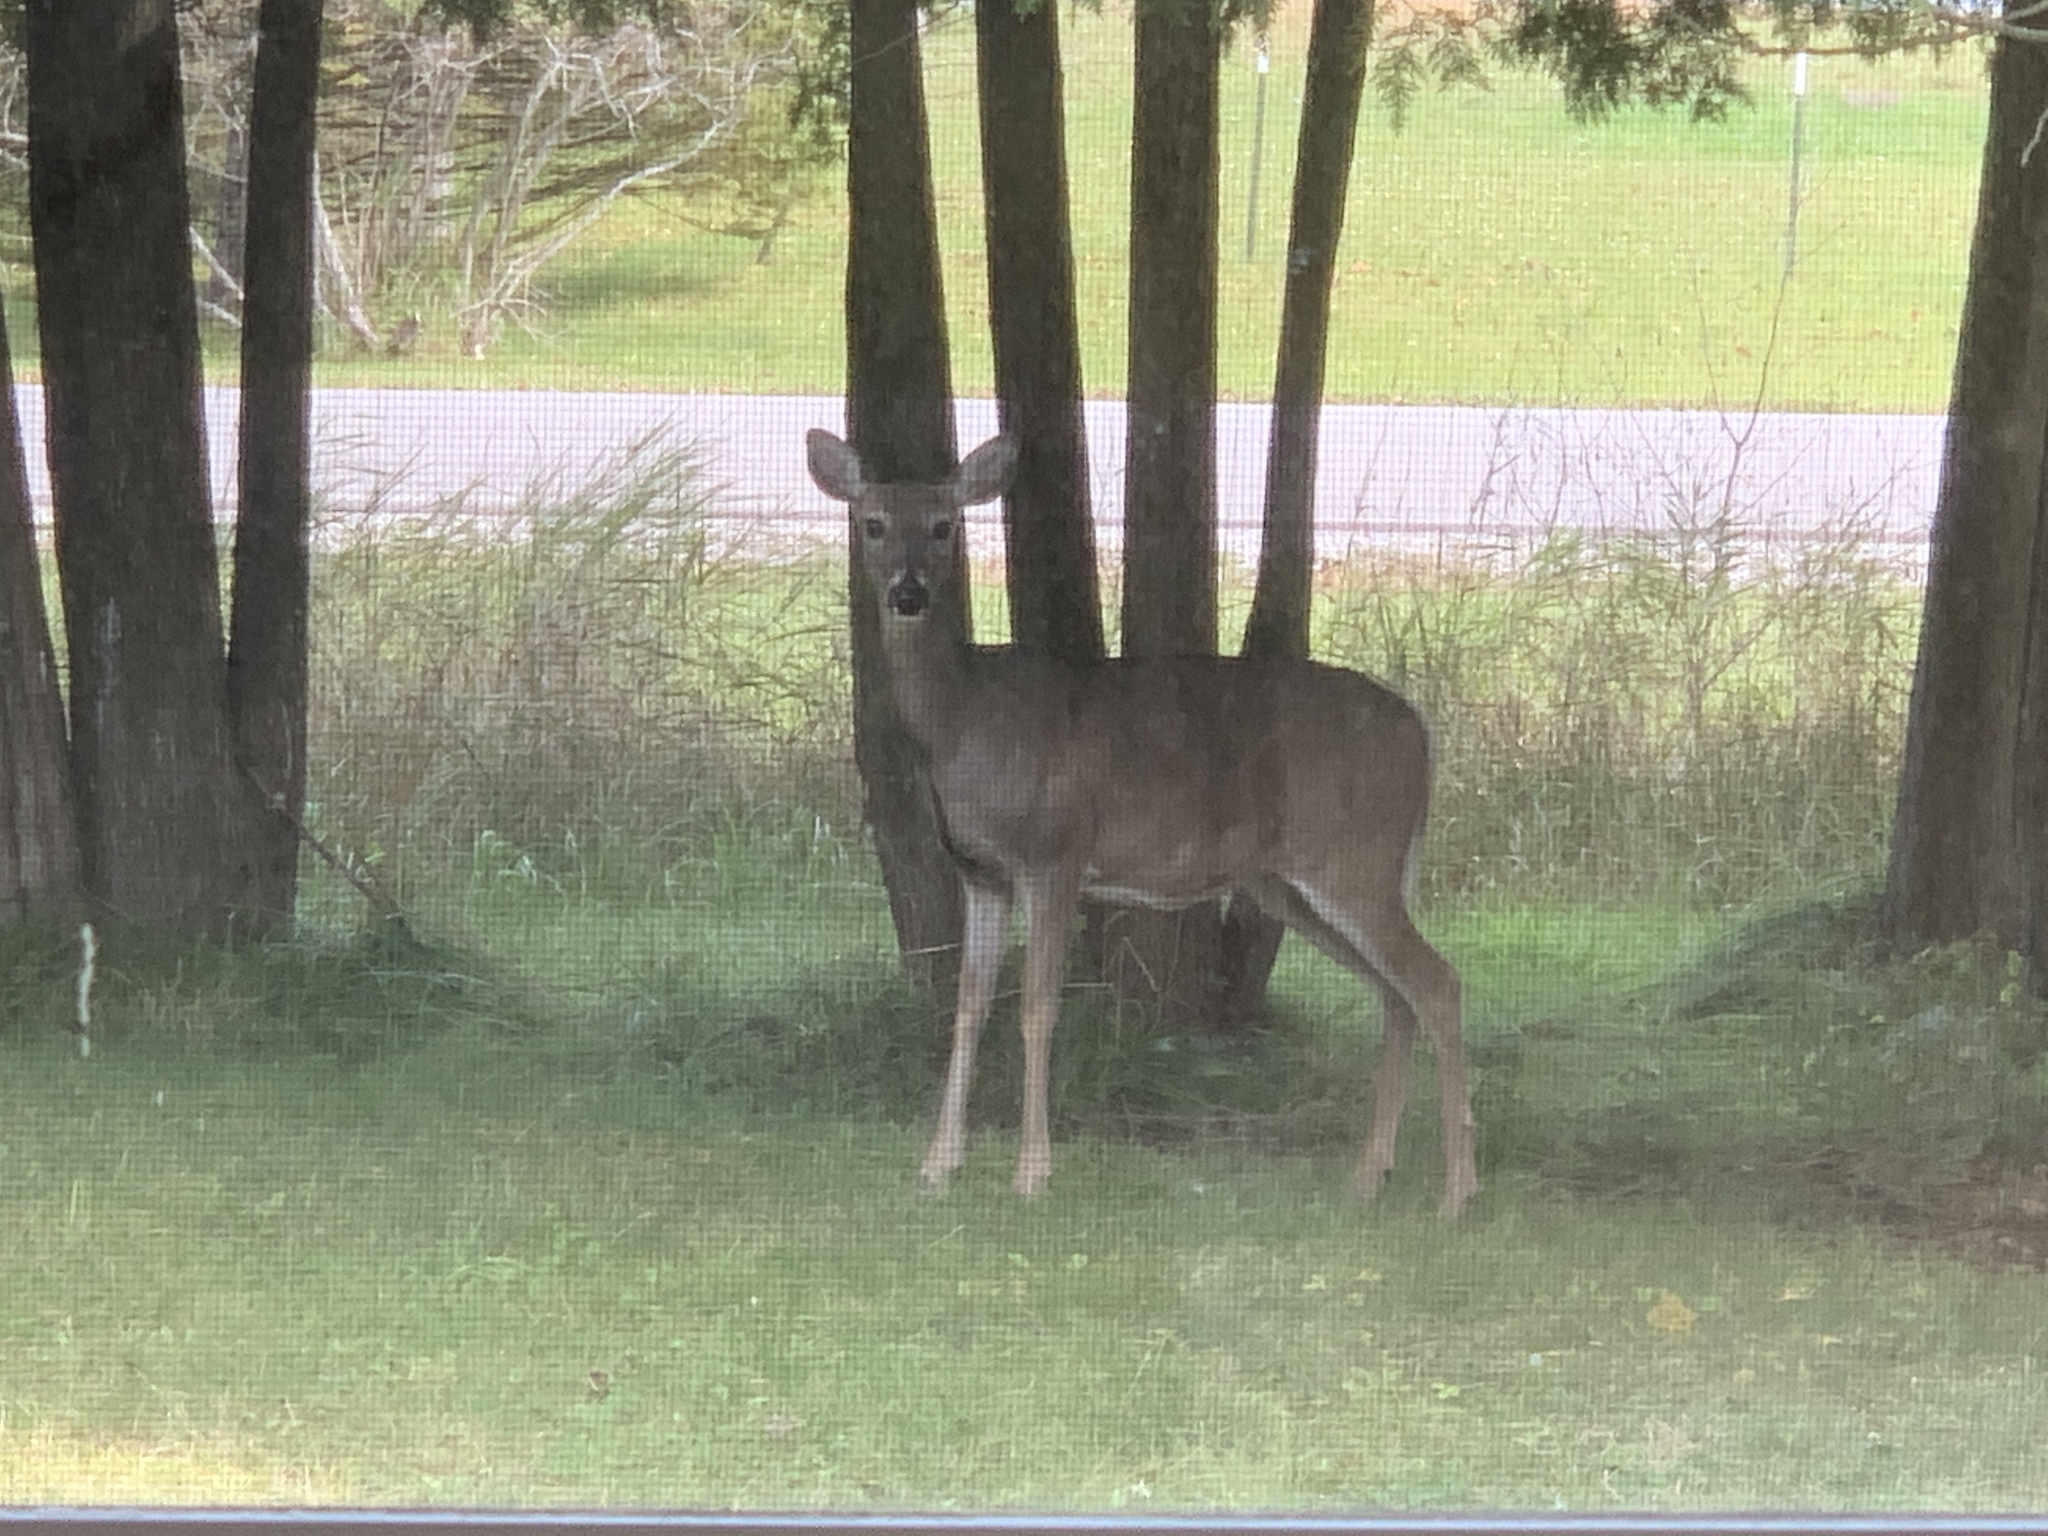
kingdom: Animalia
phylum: Chordata
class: Mammalia
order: Artiodactyla
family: Cervidae
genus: Odocoileus
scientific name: Odocoileus virginianus
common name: White-tailed deer
